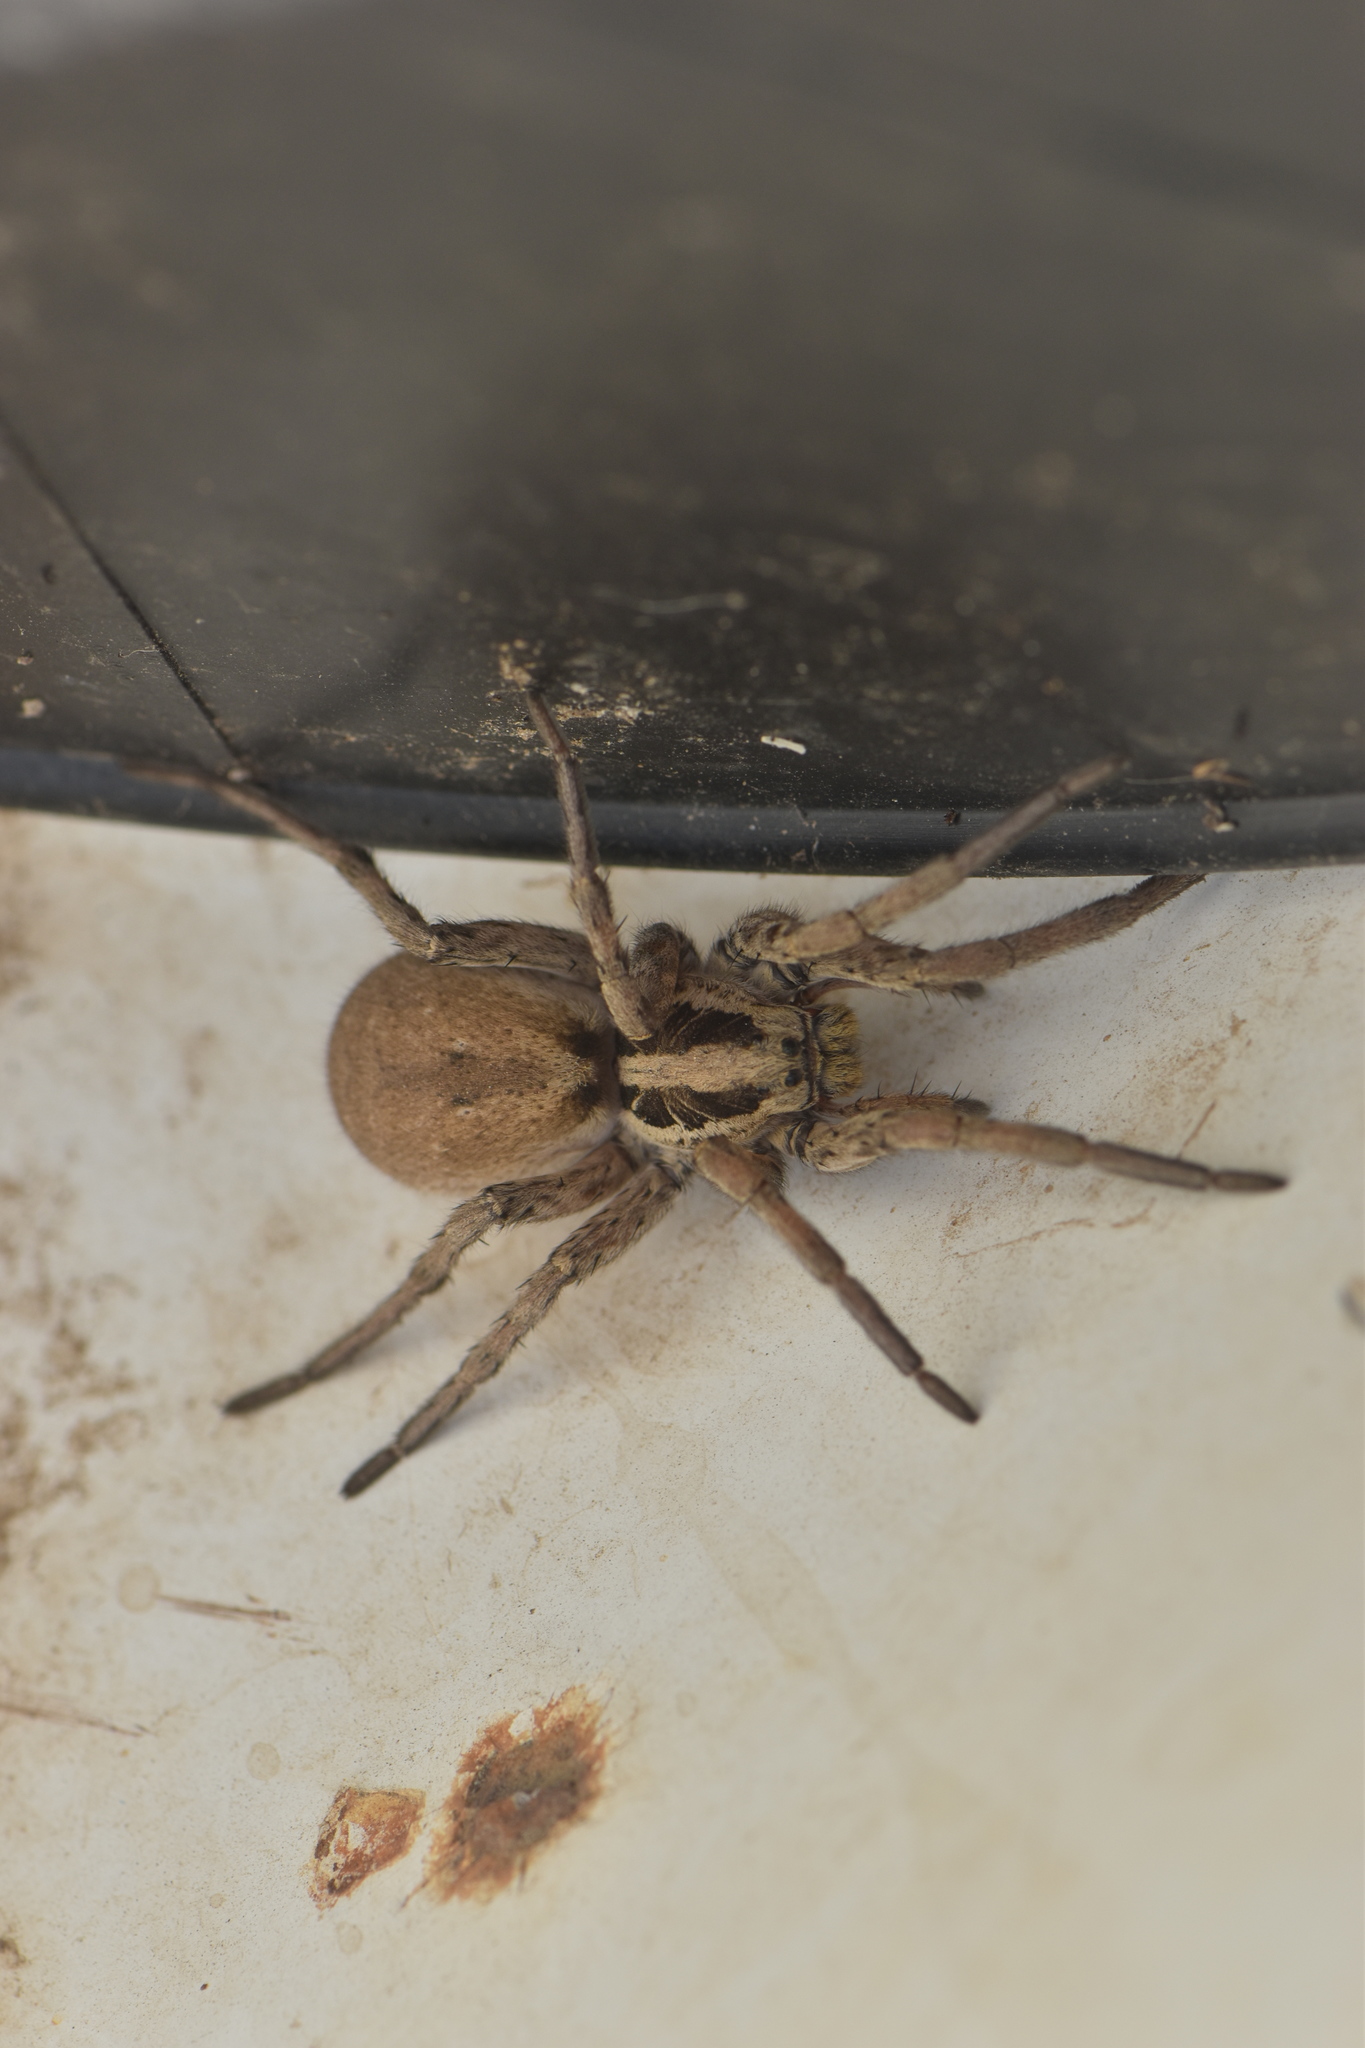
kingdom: Animalia
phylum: Arthropoda
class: Arachnida
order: Araneae
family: Lycosidae
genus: Hogna
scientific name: Hogna radiata
